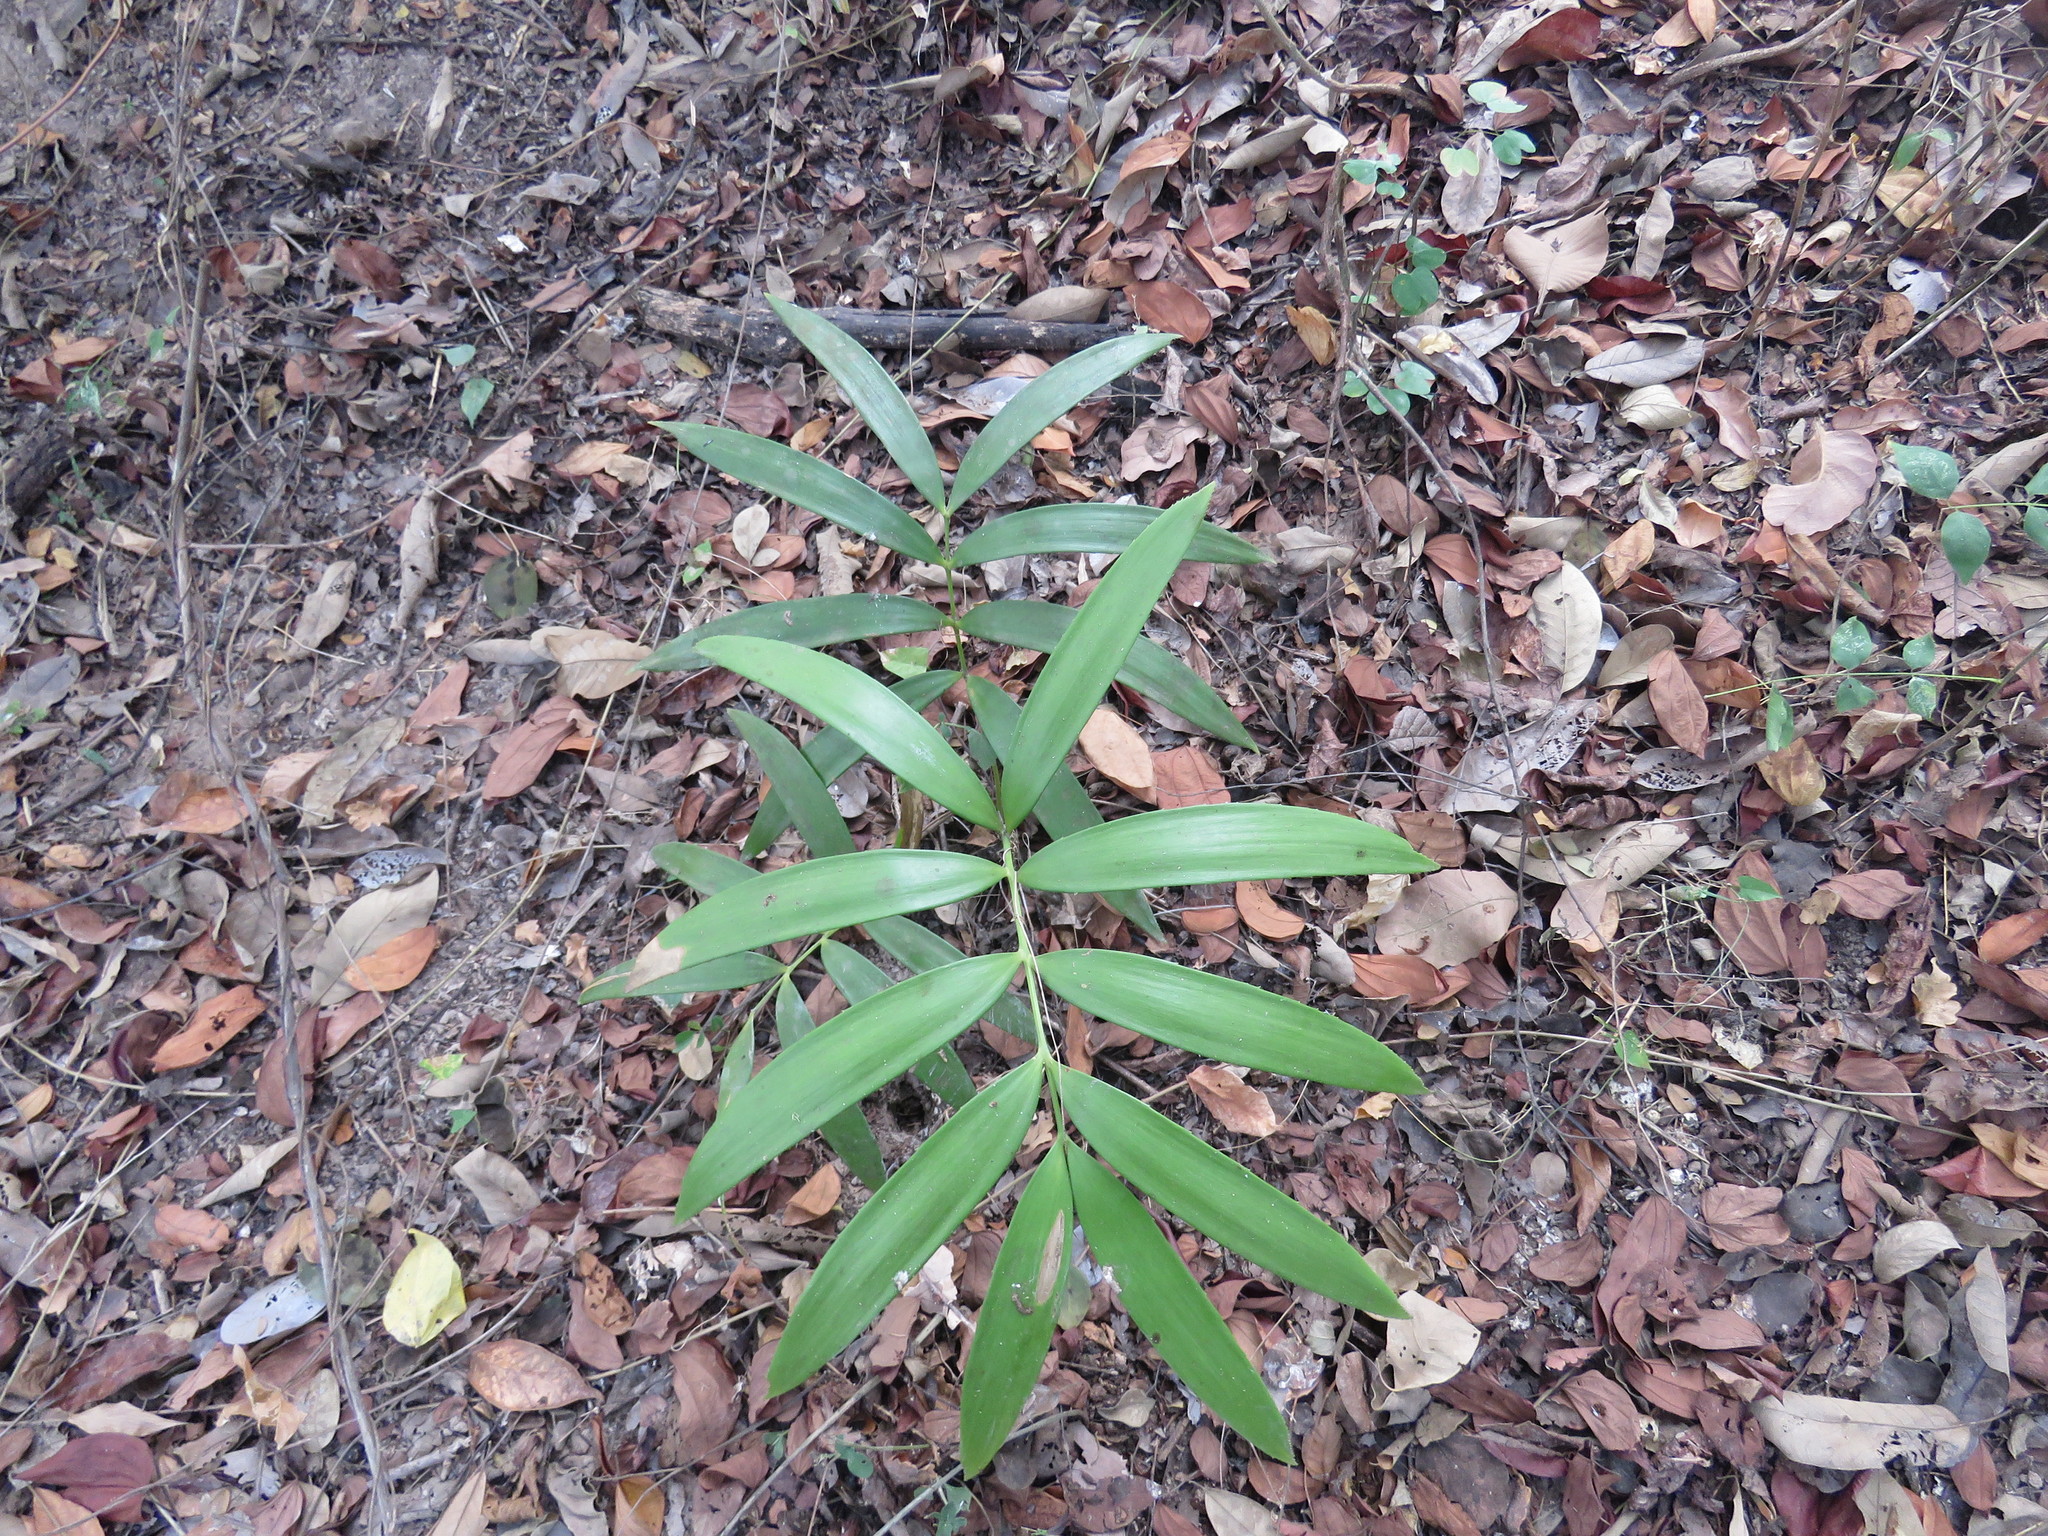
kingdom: Plantae
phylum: Tracheophyta
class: Cycadopsida
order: Cycadales
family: Zamiaceae
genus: Zamia
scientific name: Zamia paucijuga
